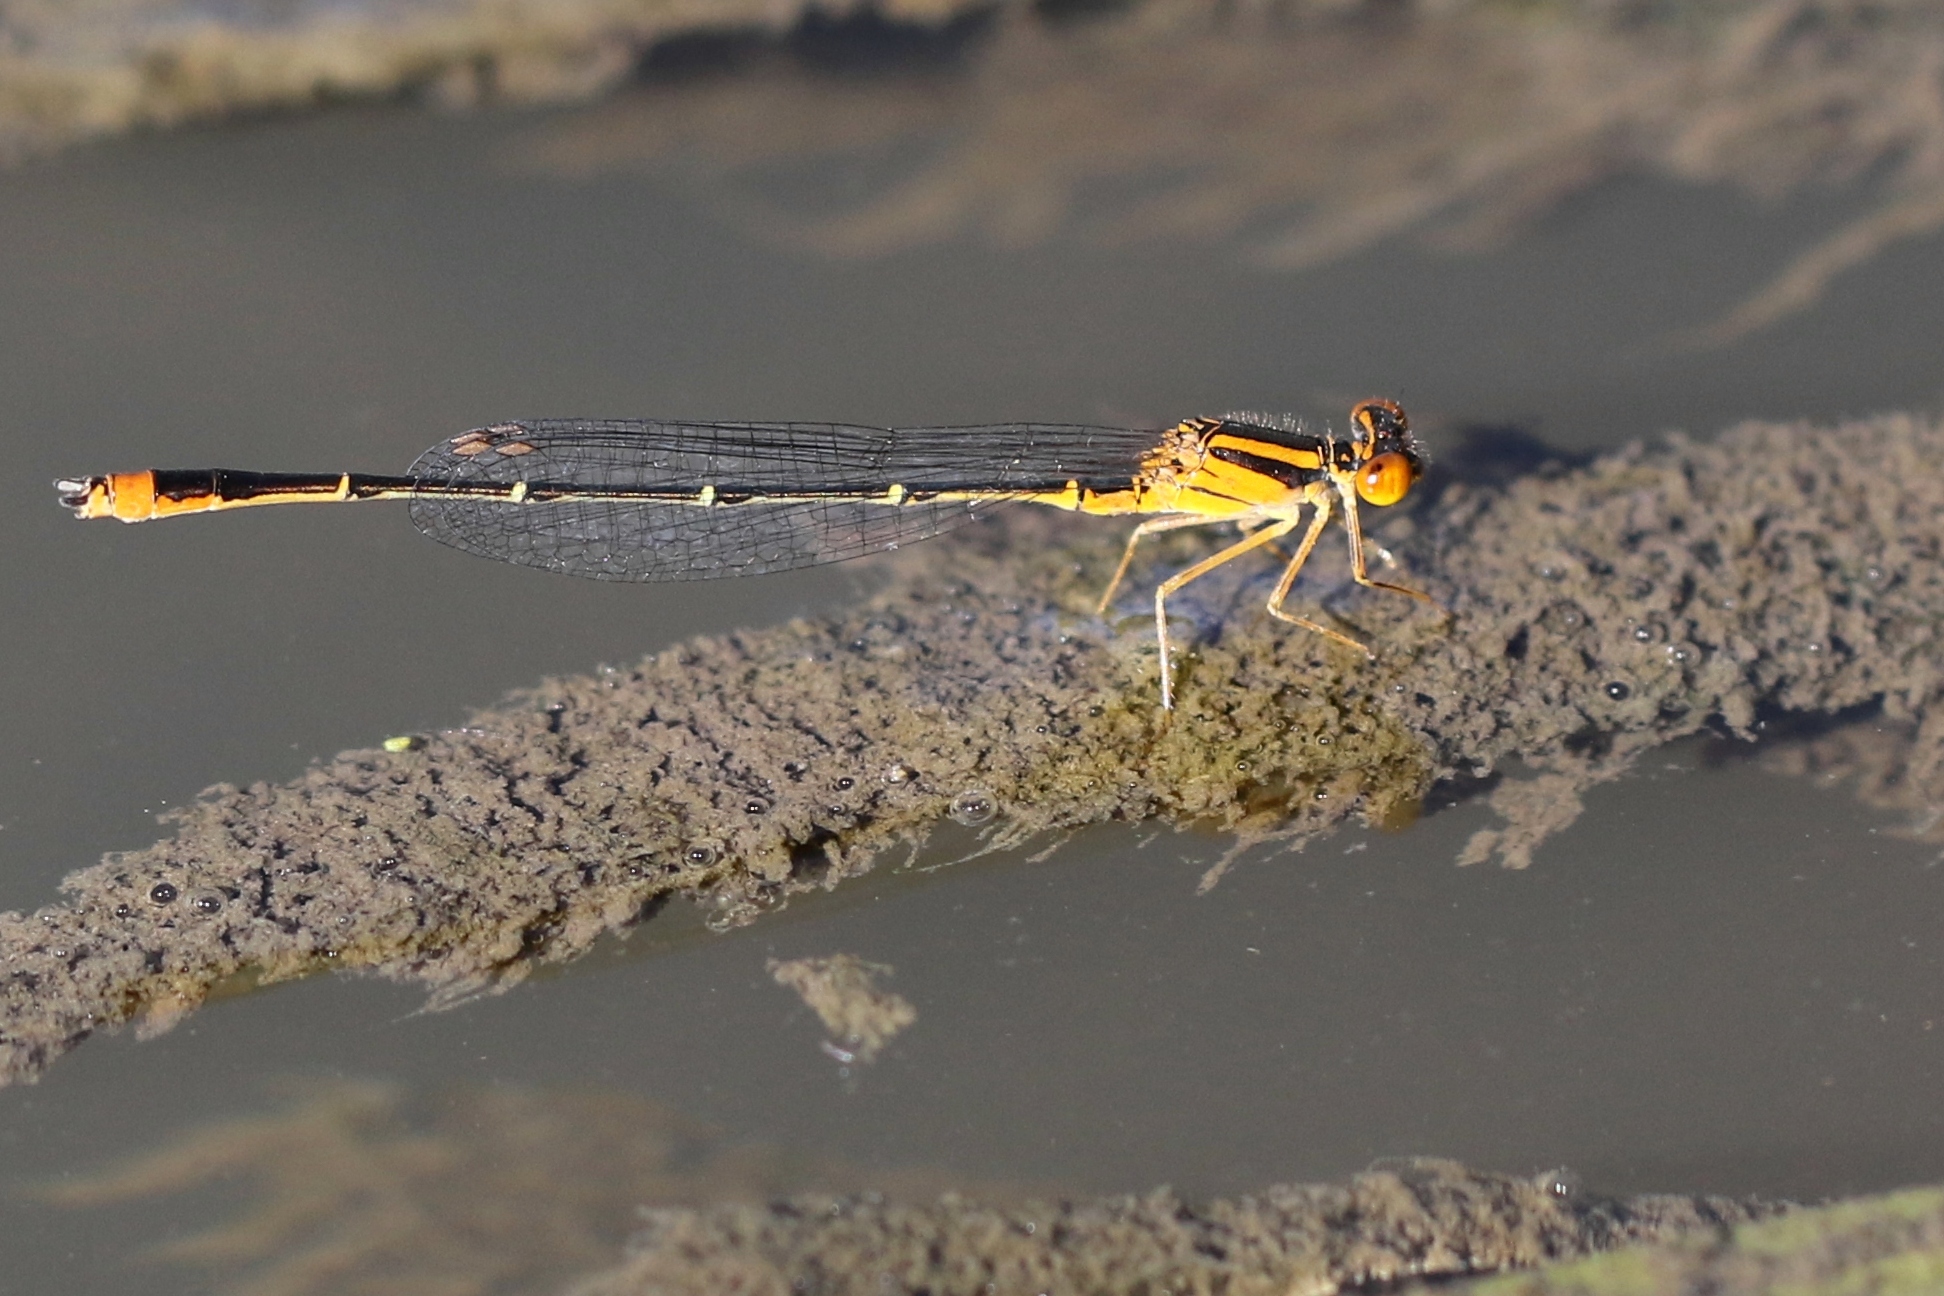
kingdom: Animalia
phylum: Arthropoda
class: Insecta
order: Odonata
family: Coenagrionidae
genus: Enallagma
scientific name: Enallagma signatum
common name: Orange bluet
